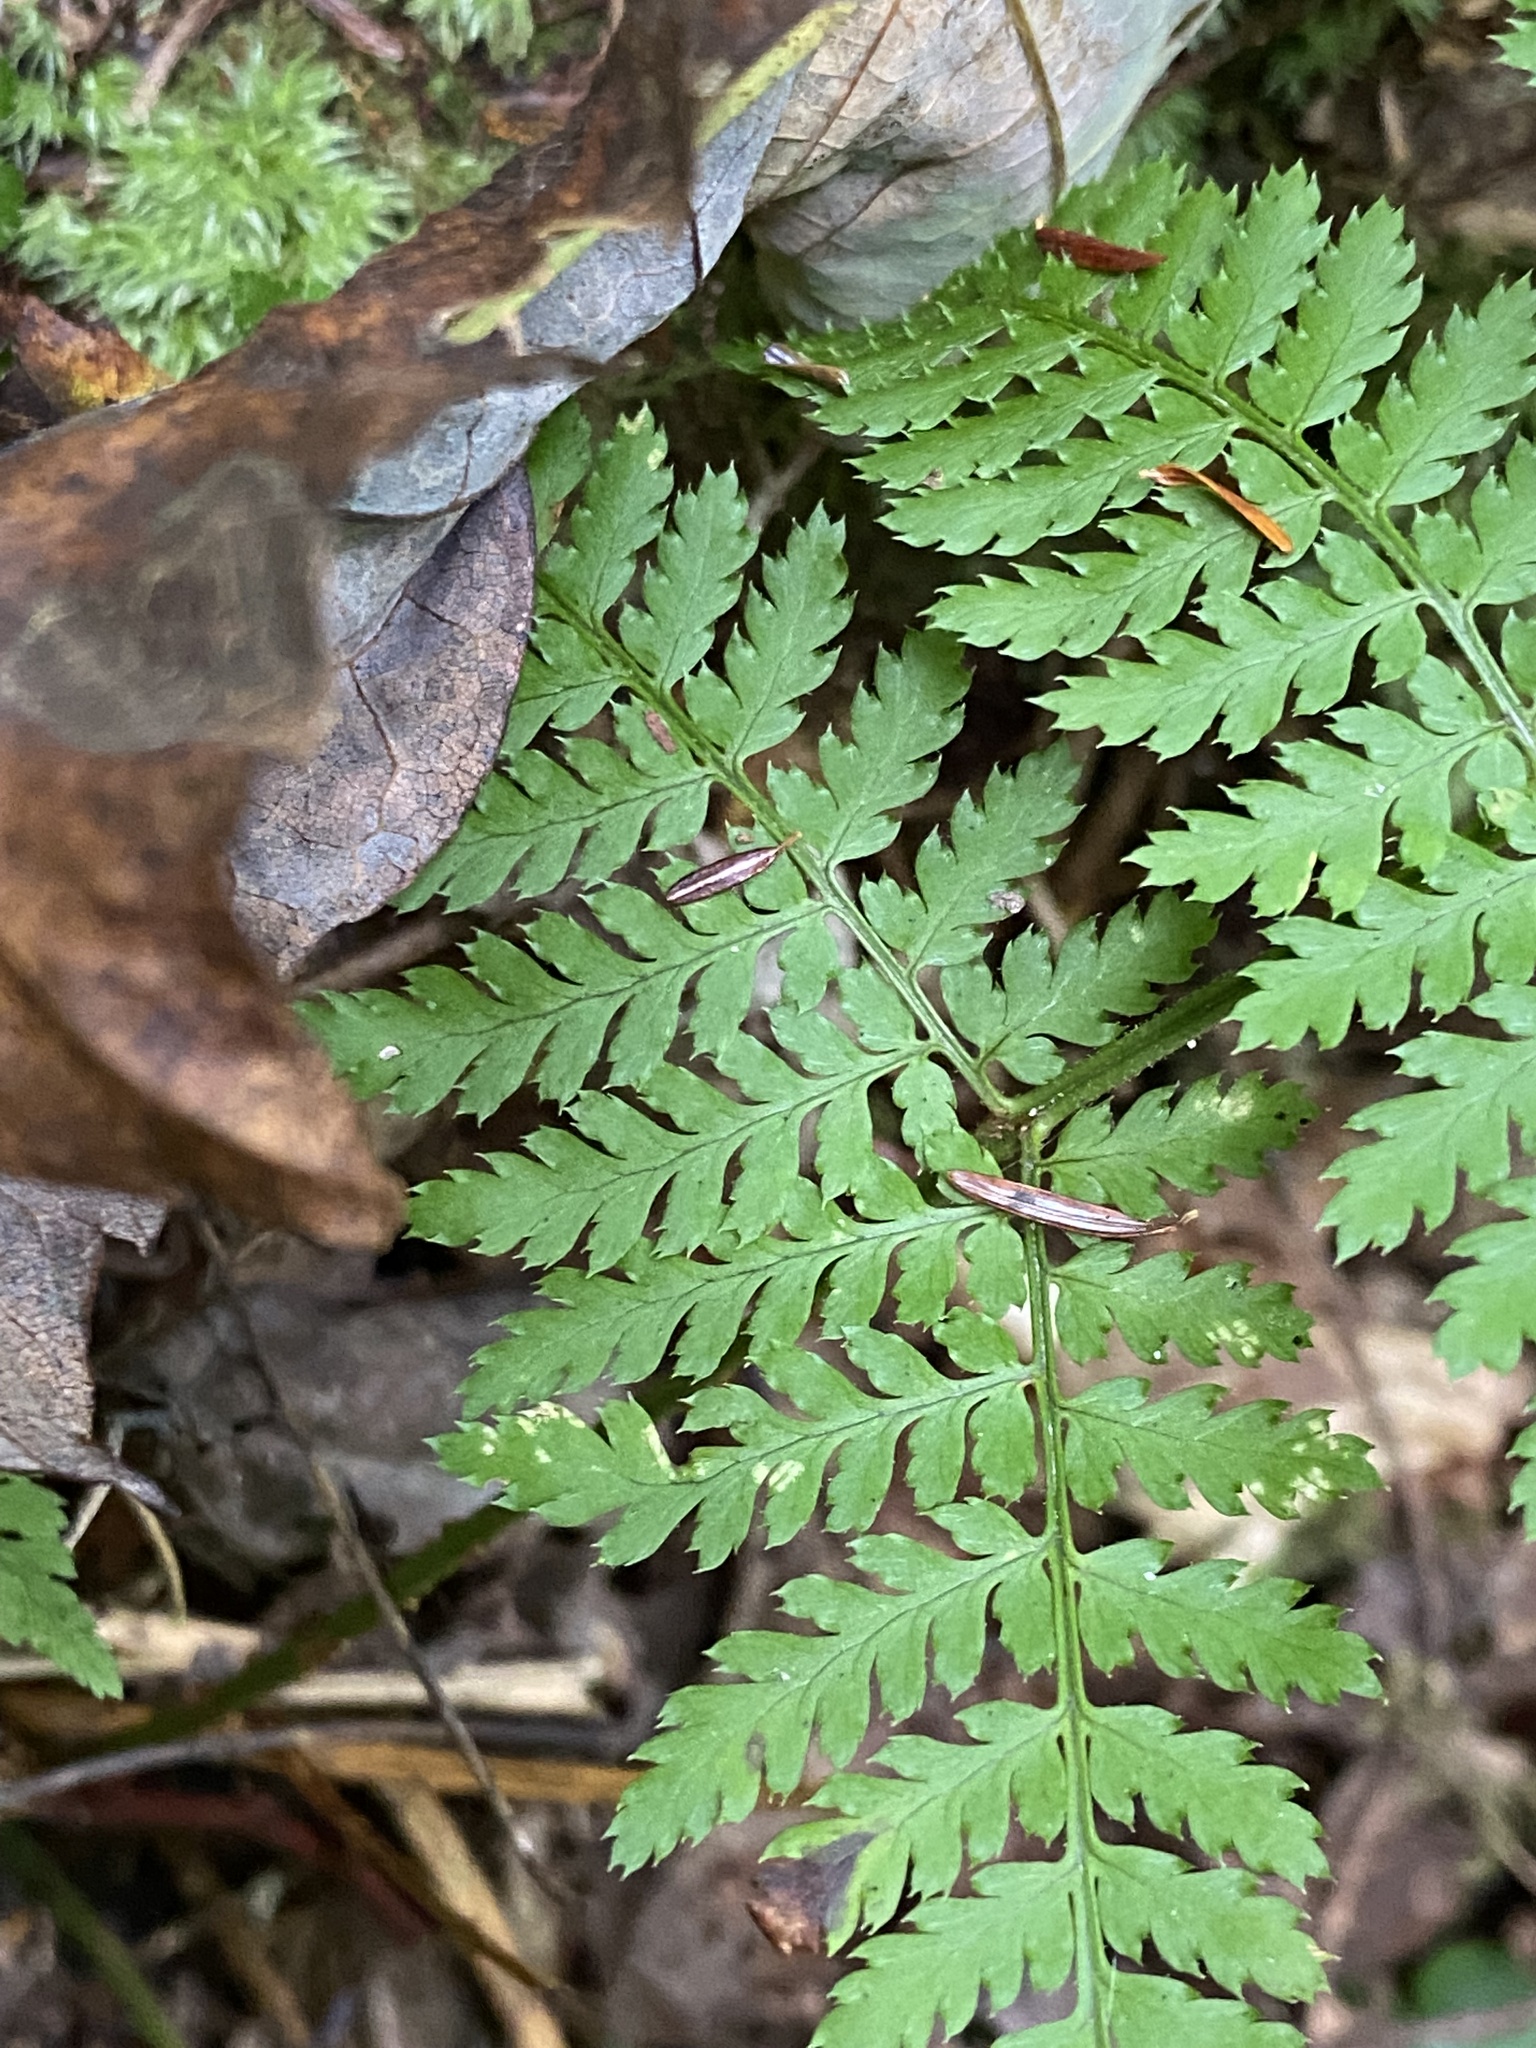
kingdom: Plantae
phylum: Tracheophyta
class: Polypodiopsida
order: Polypodiales
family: Dryopteridaceae
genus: Dryopteris
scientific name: Dryopteris intermedia
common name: Evergreen wood fern
